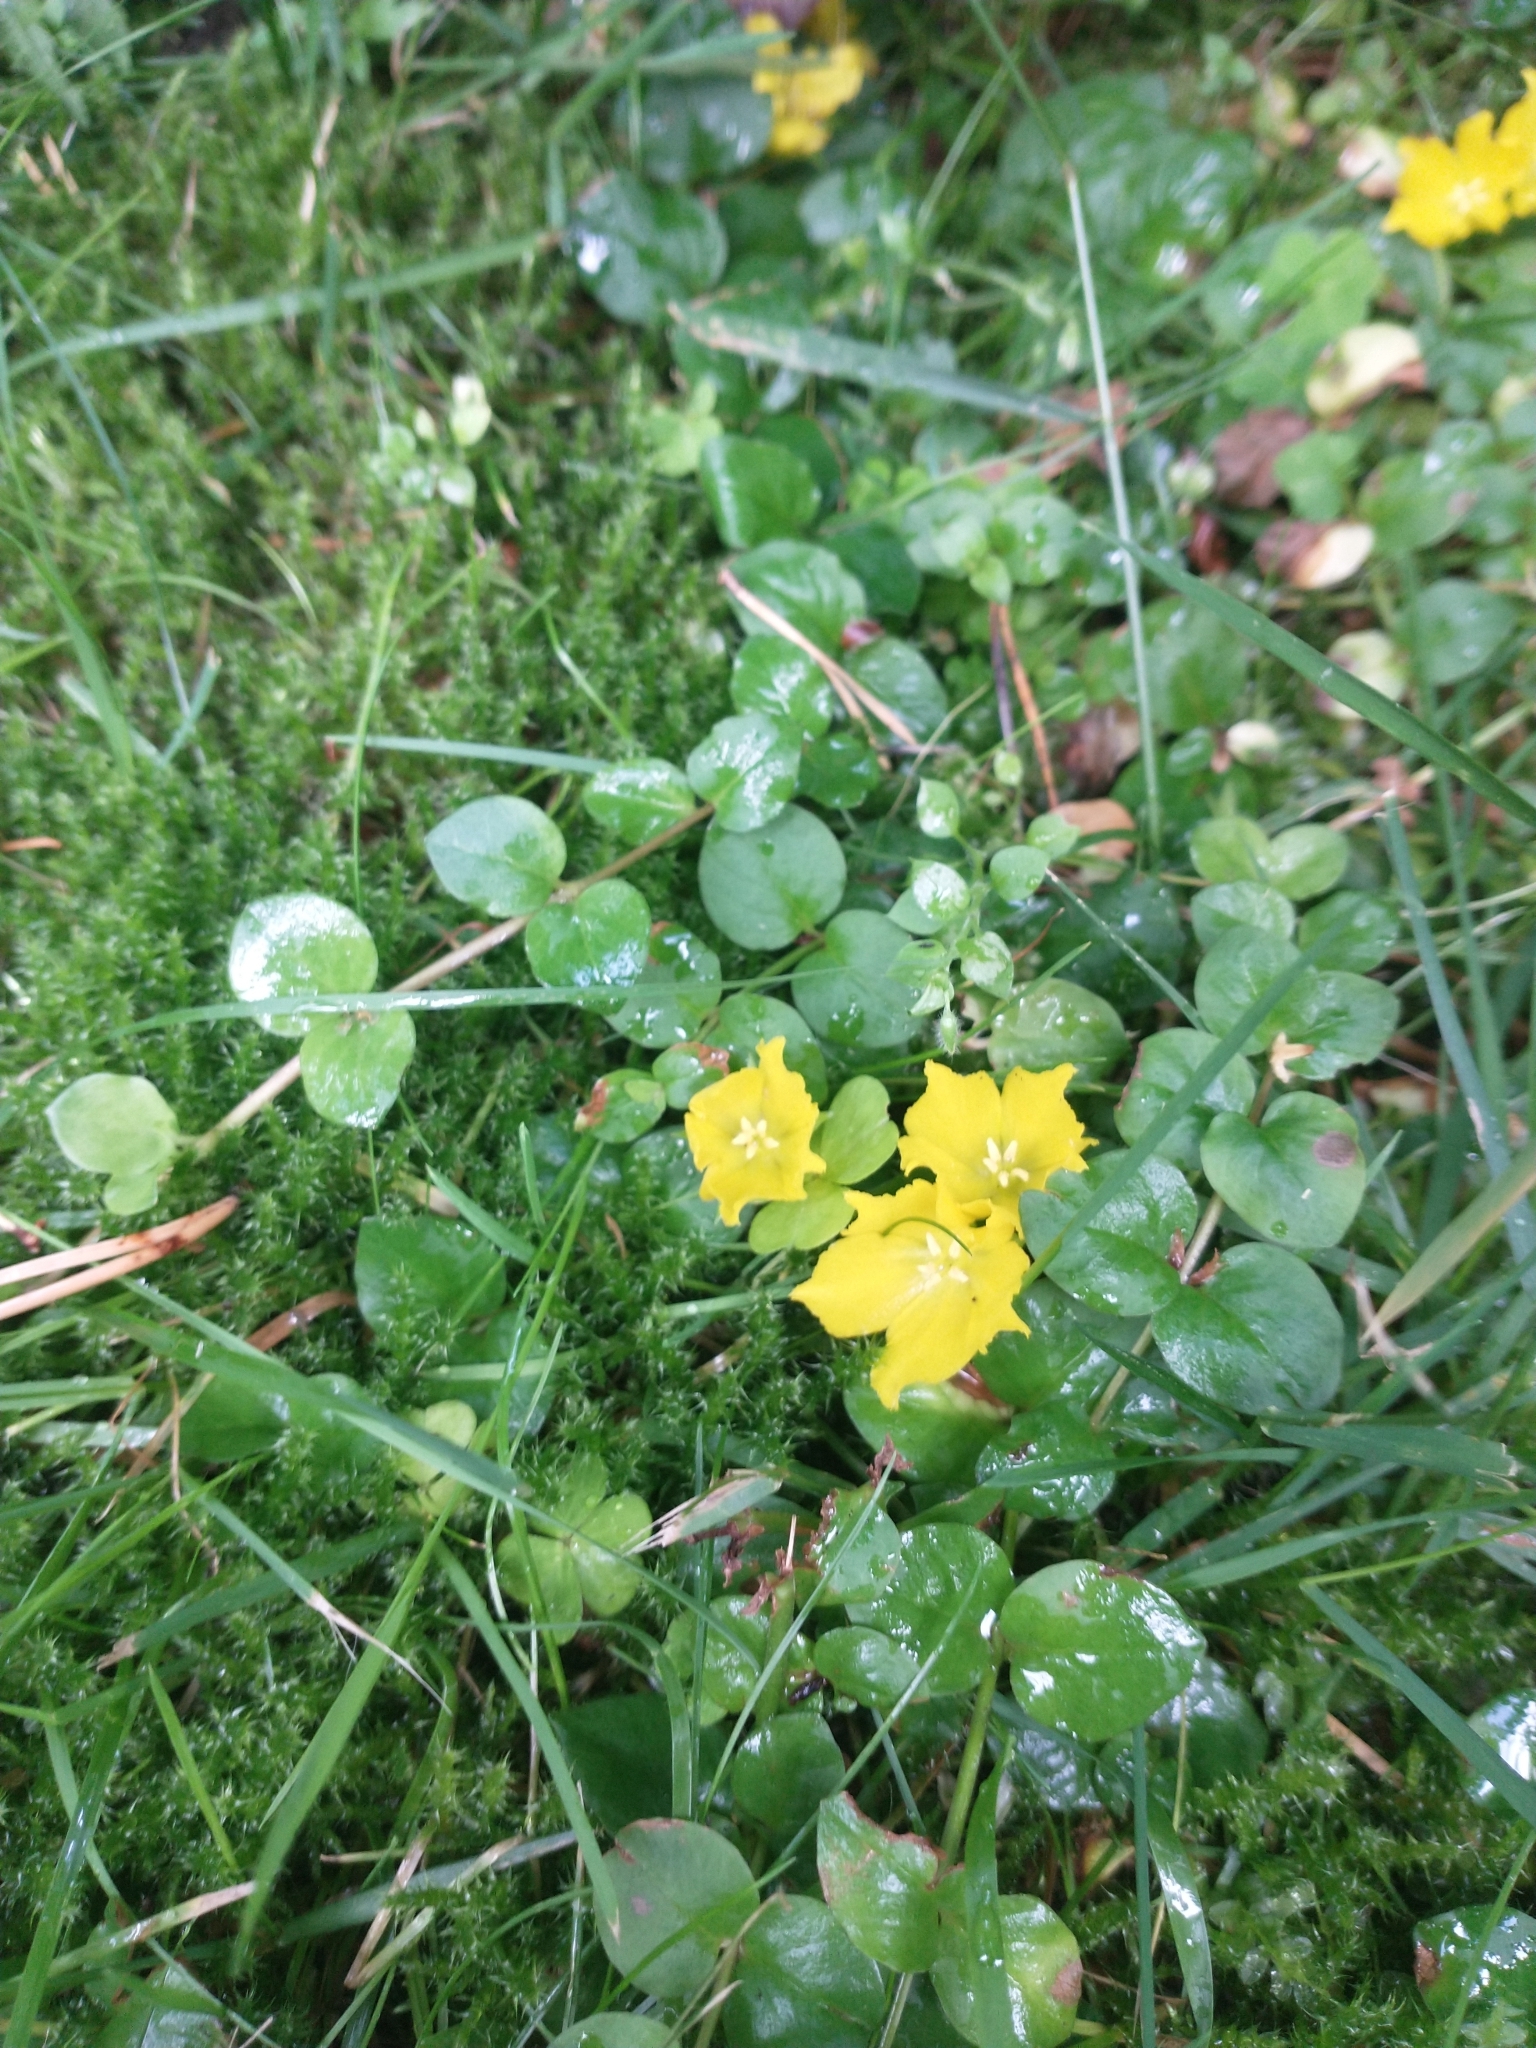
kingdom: Plantae
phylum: Tracheophyta
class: Magnoliopsida
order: Ericales
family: Primulaceae
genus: Lysimachia
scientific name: Lysimachia nummularia
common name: Moneywort
